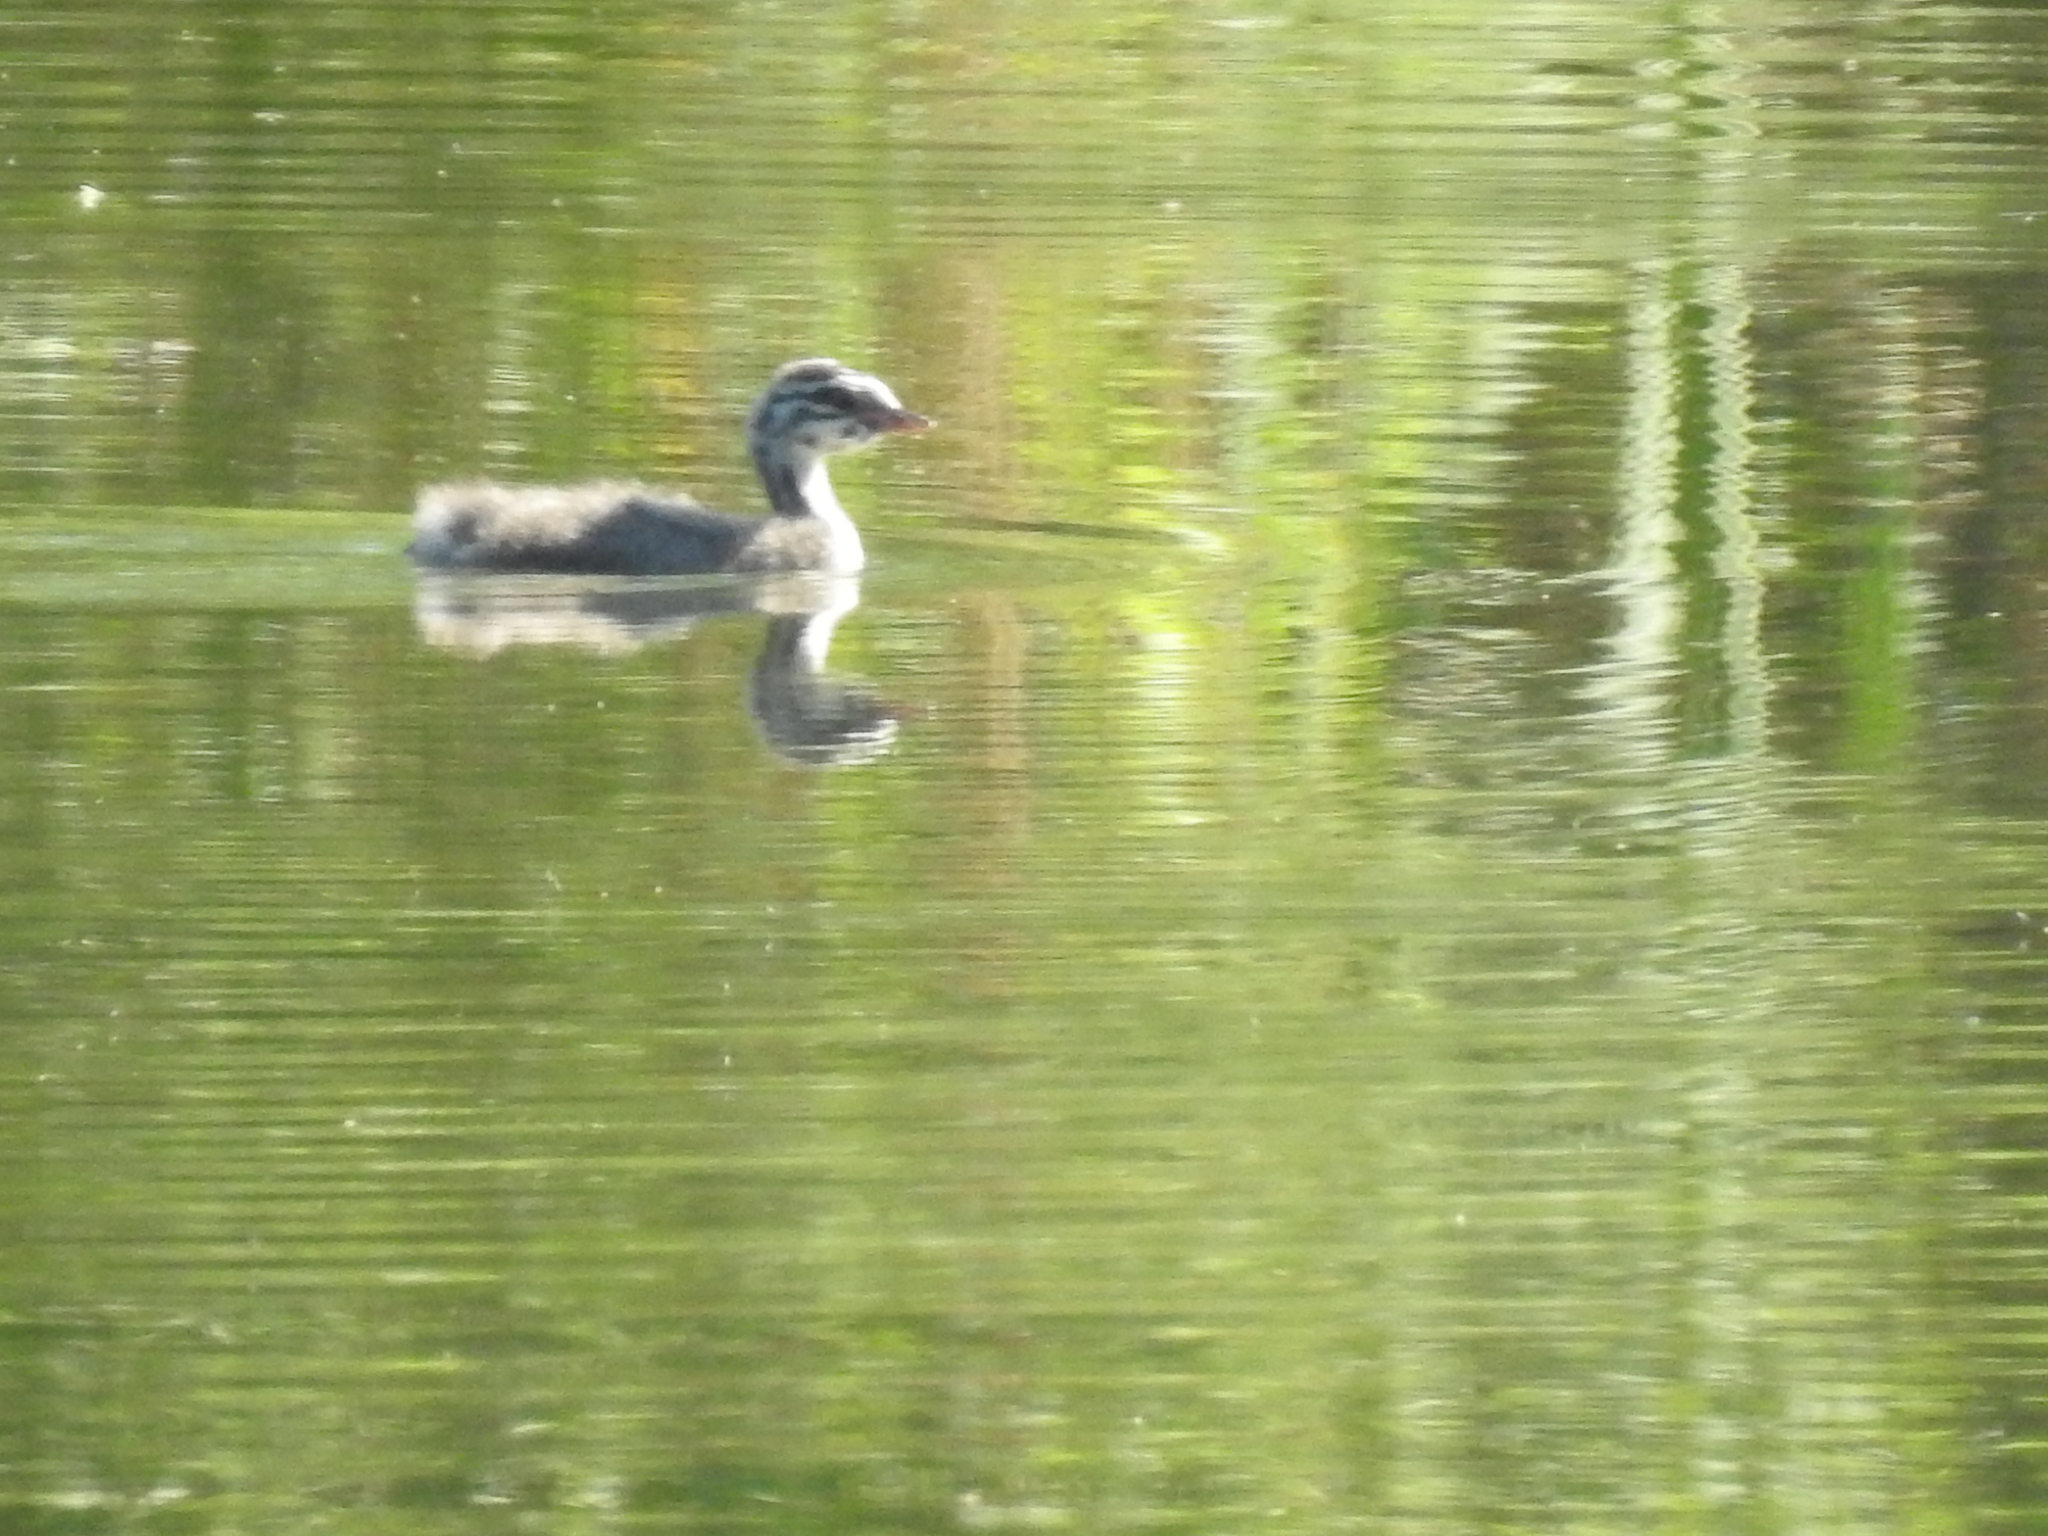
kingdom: Animalia
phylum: Chordata
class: Aves
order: Podicipediformes
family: Podicipedidae
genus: Podiceps
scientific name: Podiceps auritus
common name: Horned grebe
